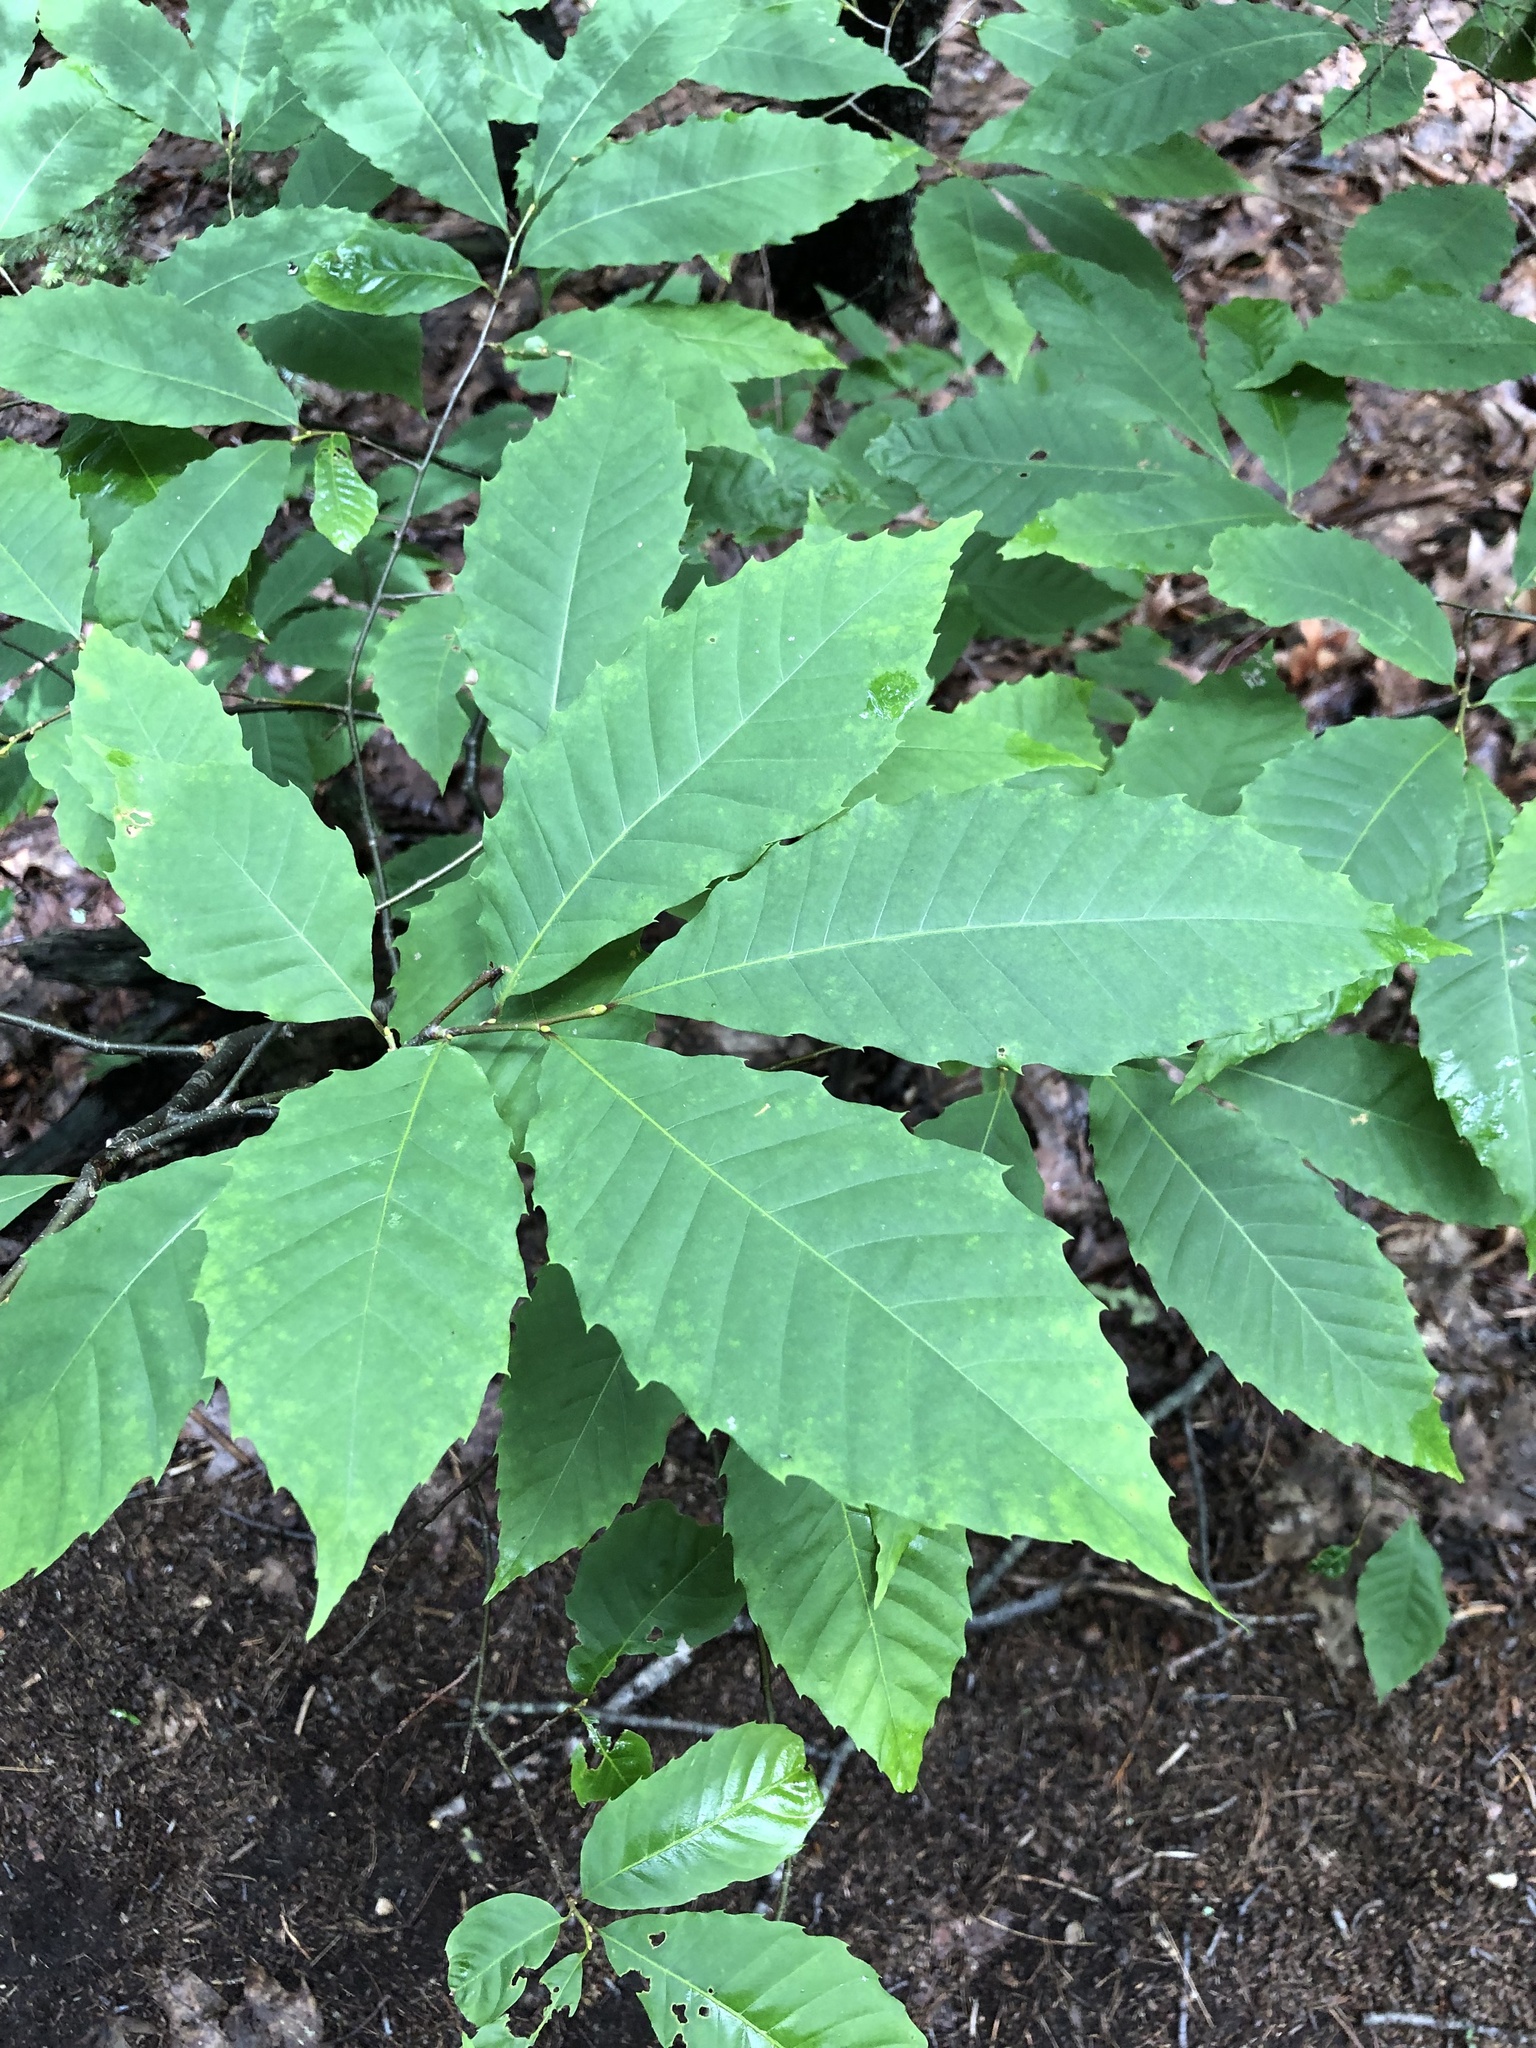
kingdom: Plantae
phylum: Tracheophyta
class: Magnoliopsida
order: Fagales
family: Fagaceae
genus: Castanea
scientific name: Castanea dentata
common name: American chestnut
